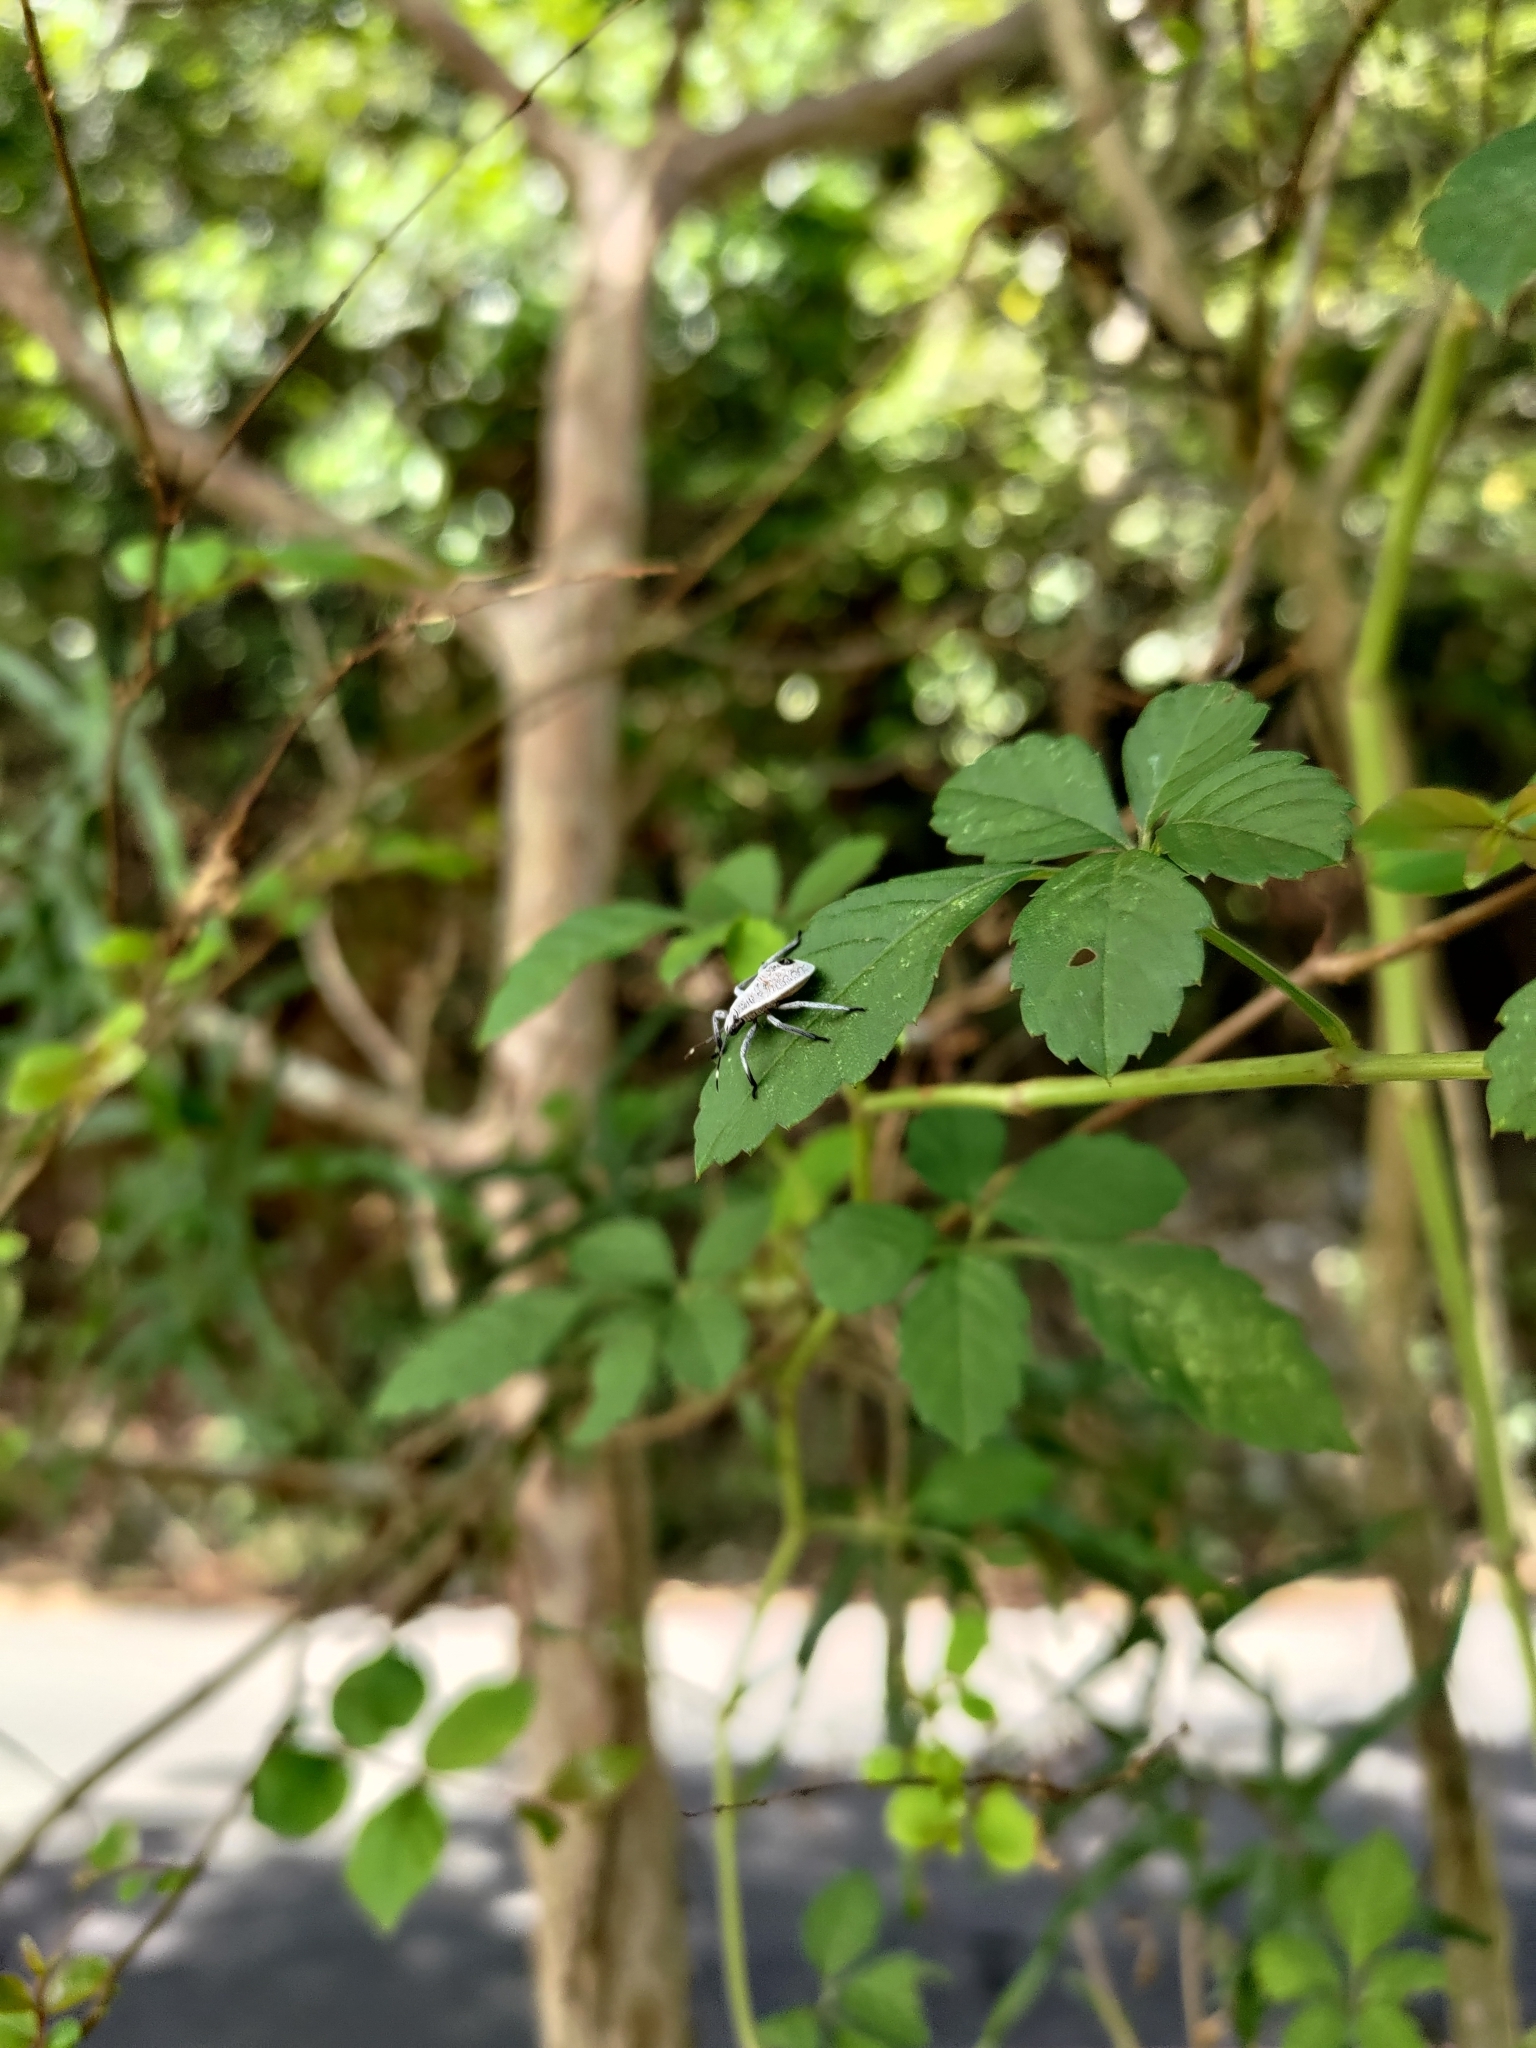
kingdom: Animalia
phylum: Arthropoda
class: Insecta
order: Hemiptera
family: Pentatomidae
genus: Erthesina
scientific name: Erthesina fullo
